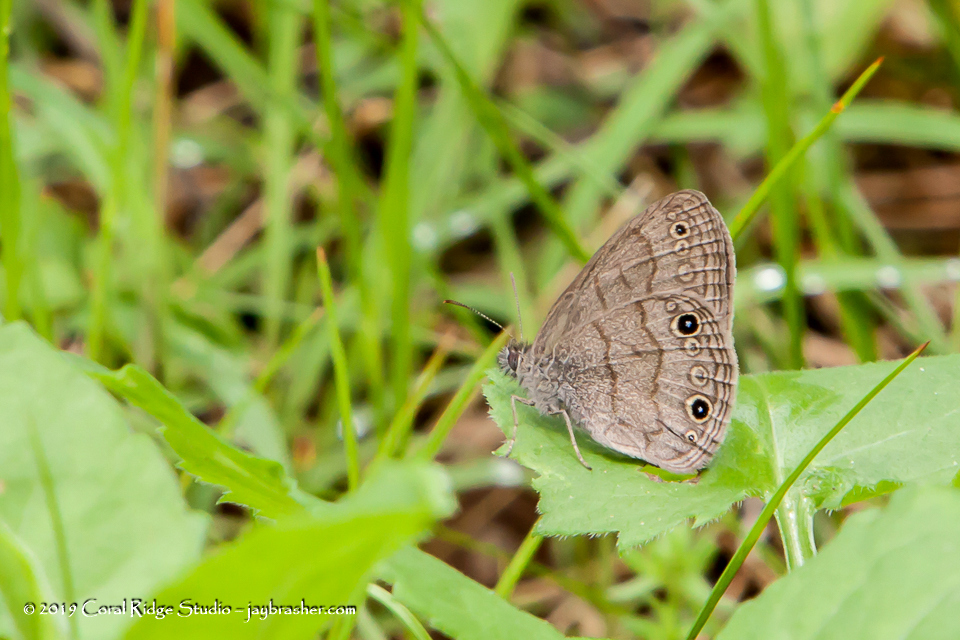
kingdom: Animalia
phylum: Arthropoda
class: Insecta
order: Lepidoptera
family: Nymphalidae
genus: Hermeuptychia
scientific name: Hermeuptychia hermes
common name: Hermes satyr
